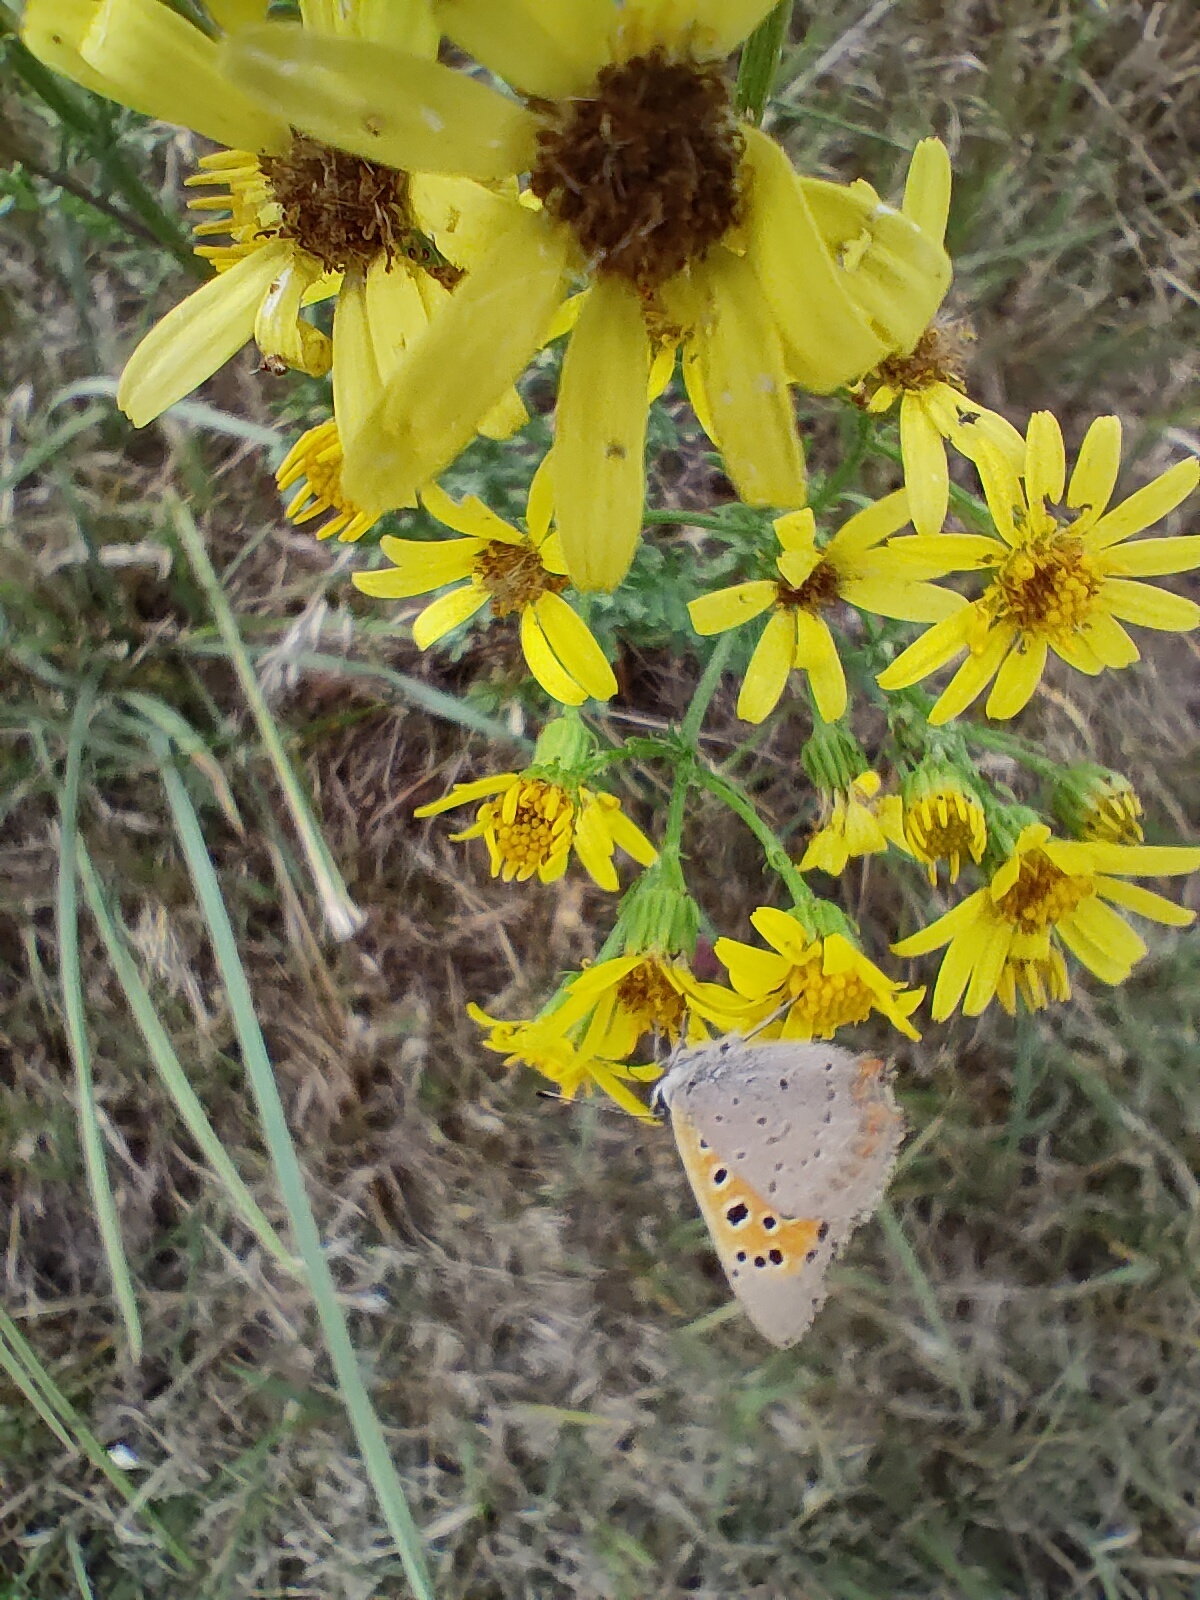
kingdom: Animalia
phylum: Arthropoda
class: Insecta
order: Lepidoptera
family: Lycaenidae
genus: Lycaena
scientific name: Lycaena phlaeas
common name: Small copper
